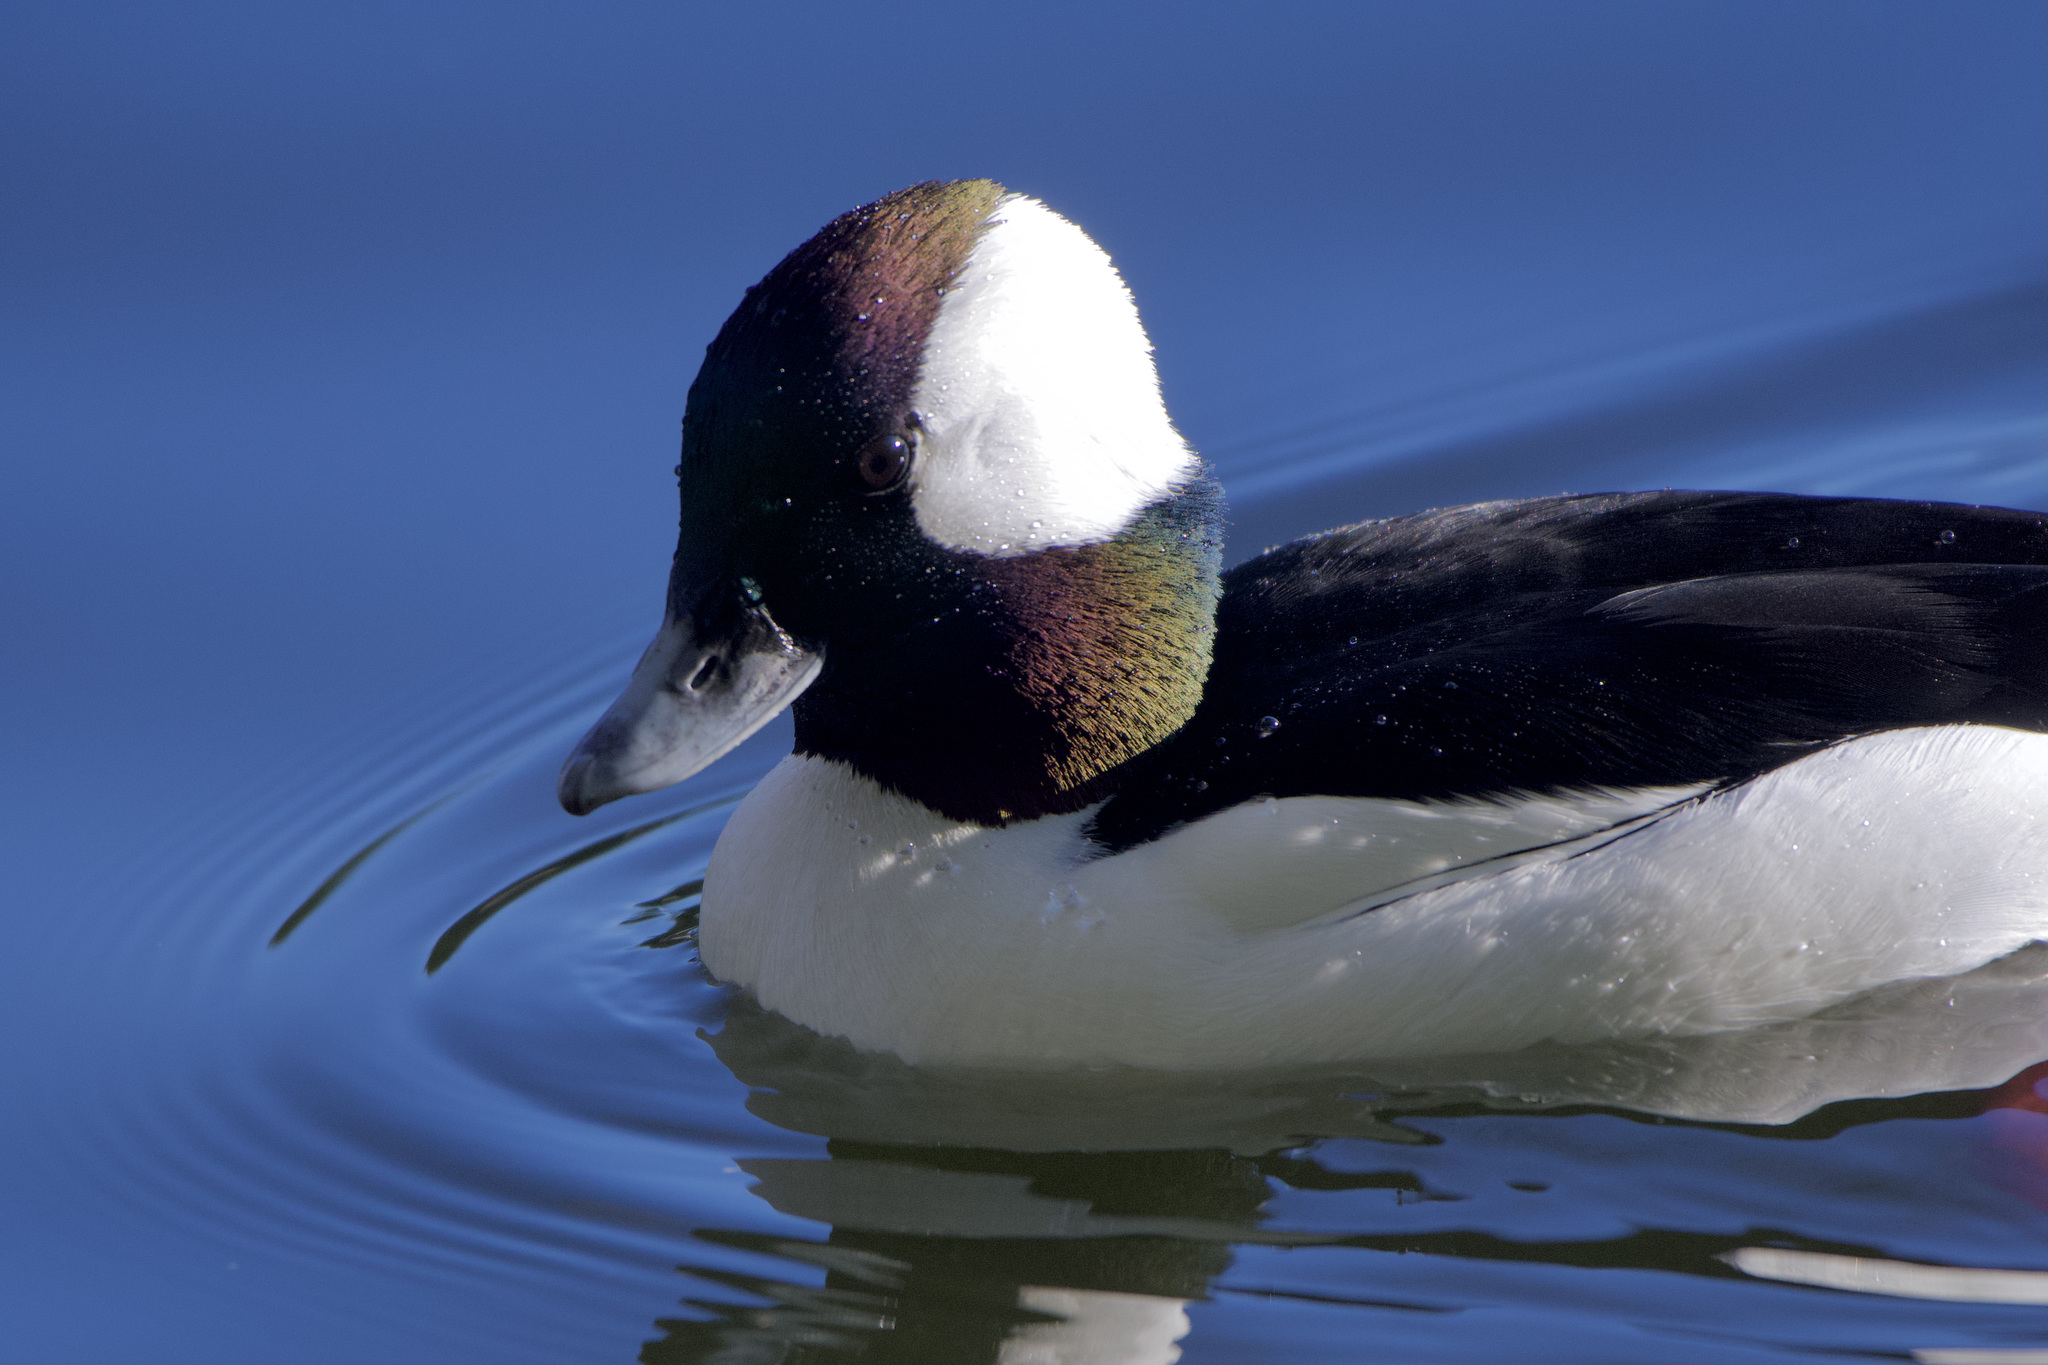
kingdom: Animalia
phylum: Chordata
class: Aves
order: Anseriformes
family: Anatidae
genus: Bucephala
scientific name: Bucephala albeola
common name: Bufflehead
